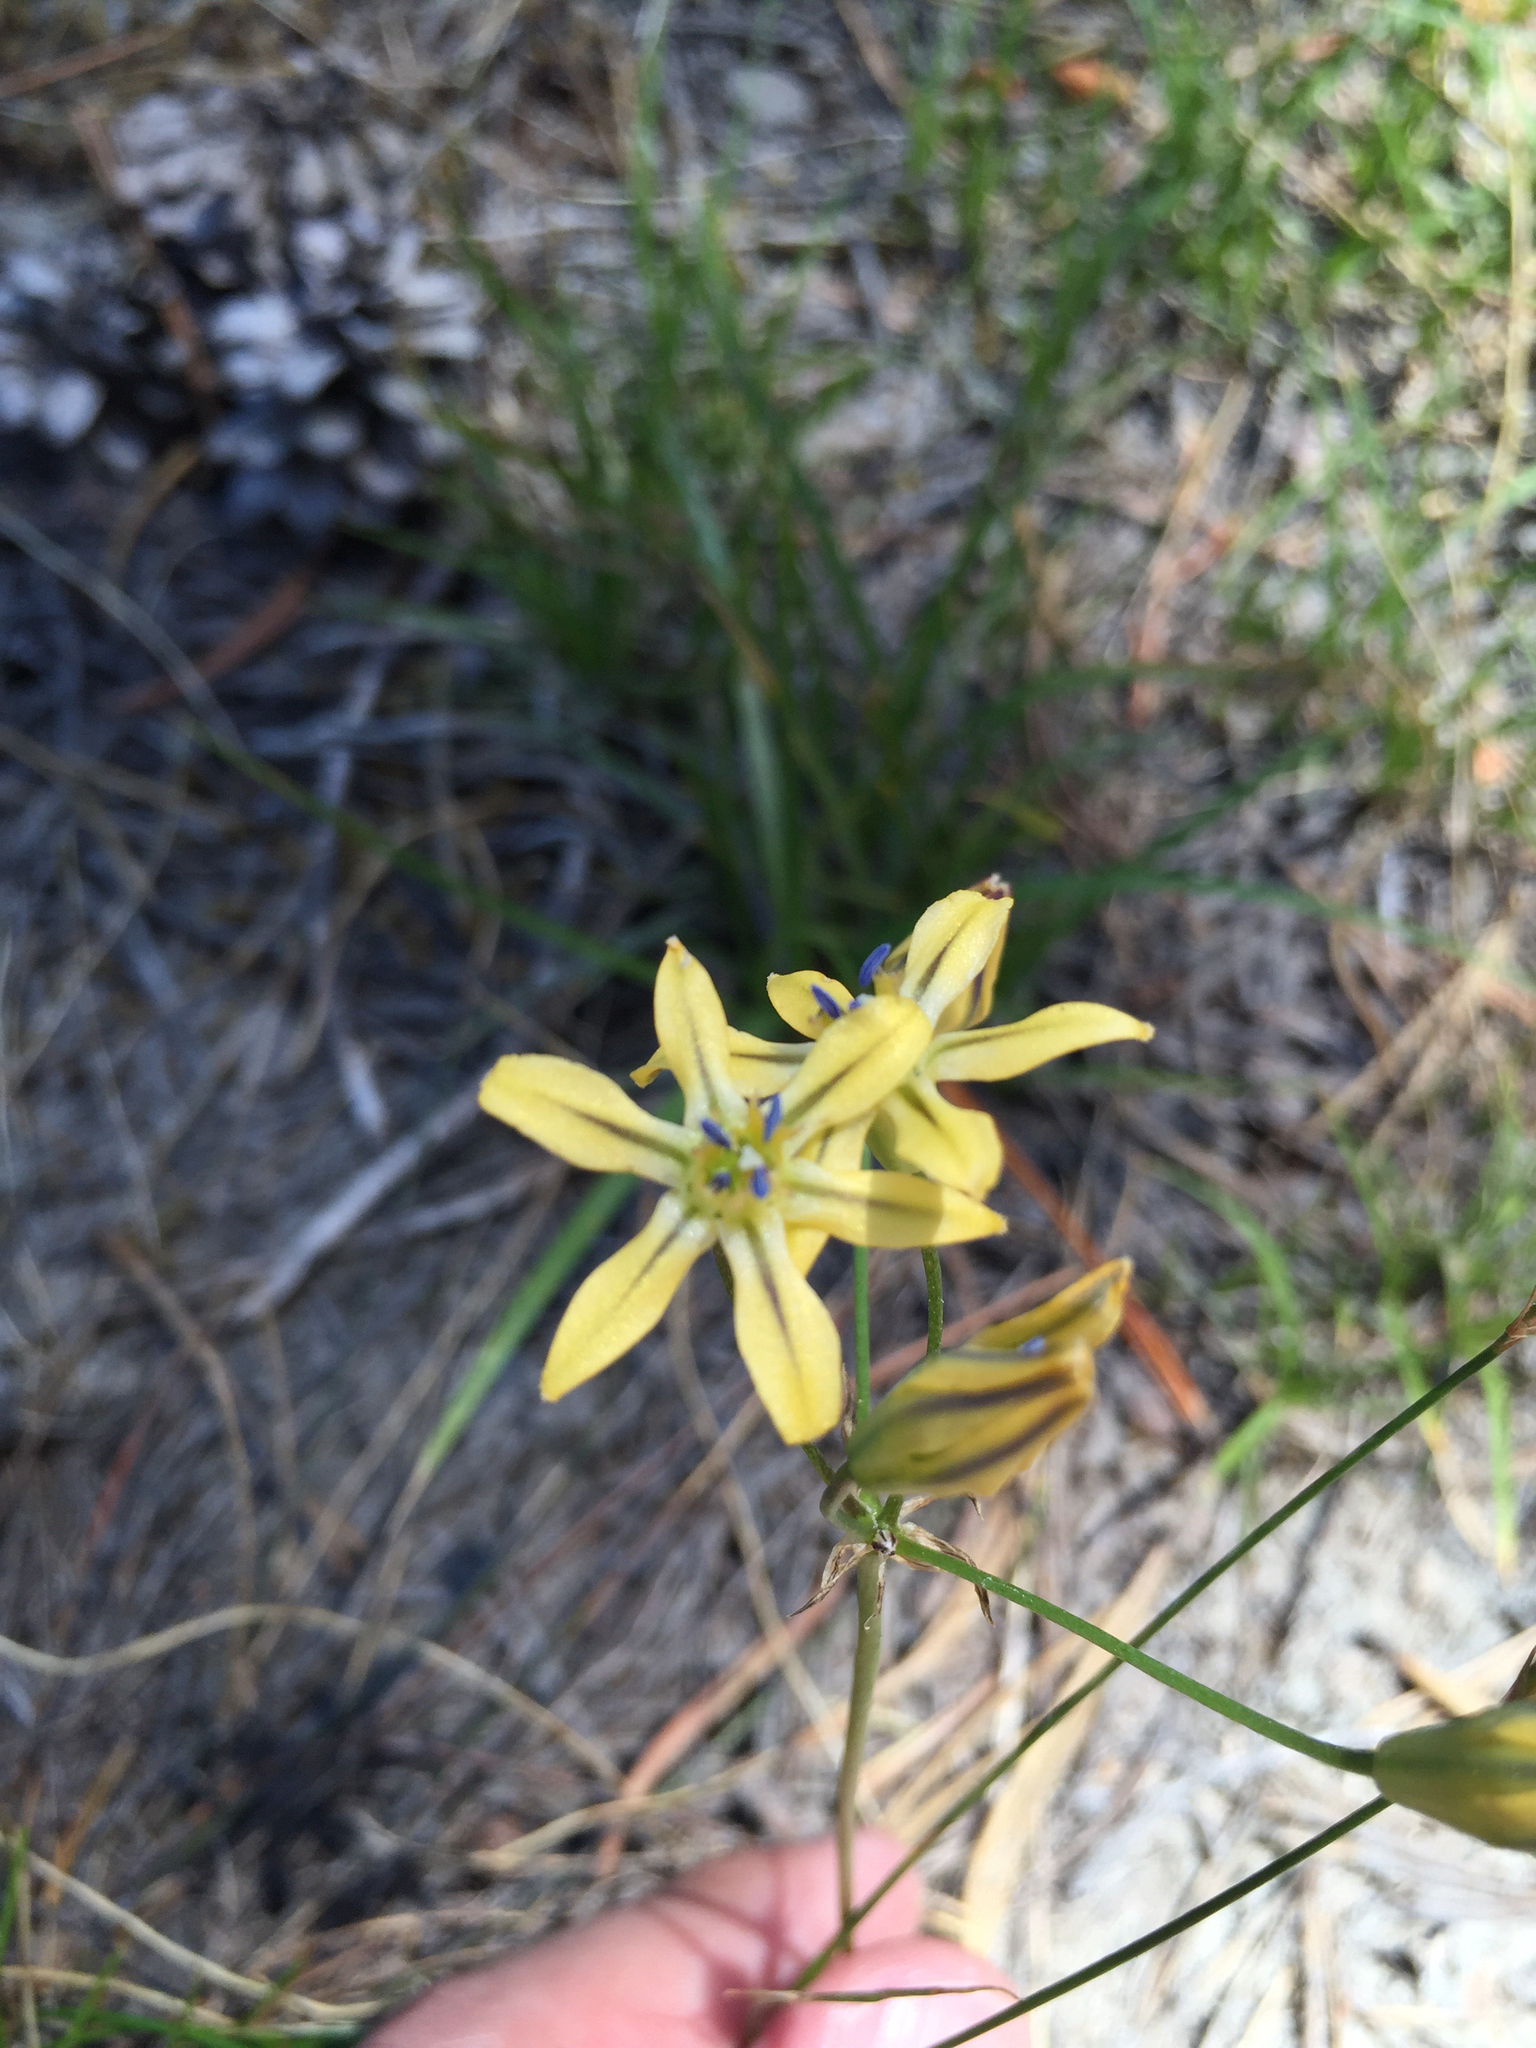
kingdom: Plantae
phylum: Tracheophyta
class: Liliopsida
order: Asparagales
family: Asparagaceae
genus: Triteleia
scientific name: Triteleia ixioides
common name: Yellow-brodiaea
